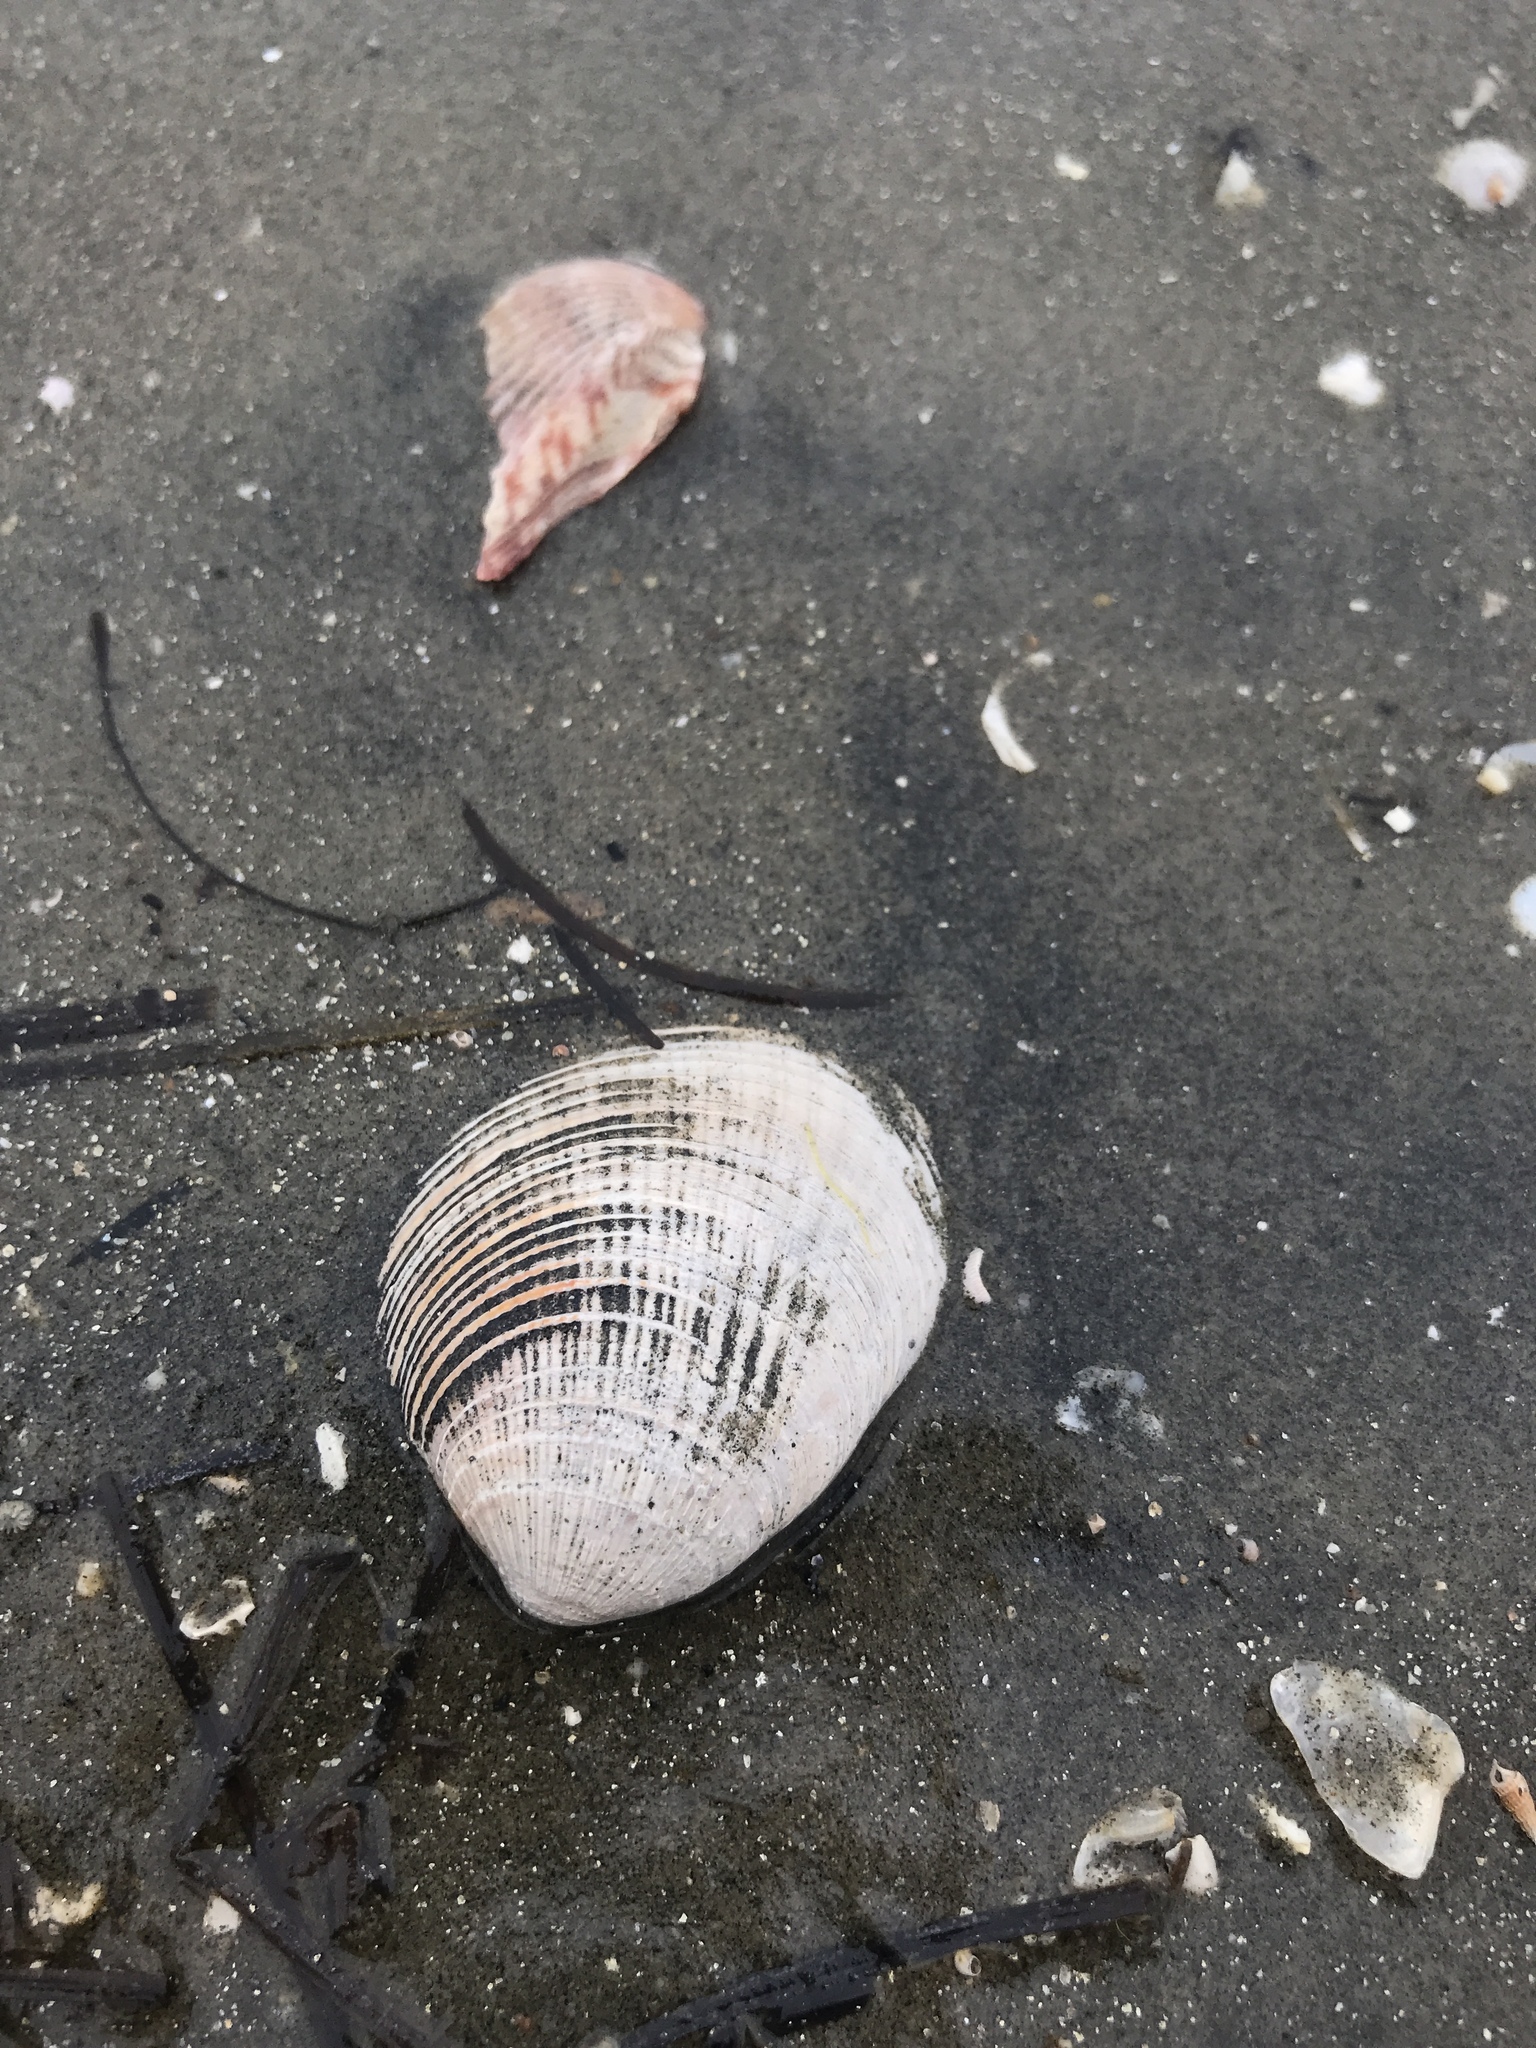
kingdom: Animalia
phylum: Mollusca
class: Bivalvia
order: Venerida
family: Veneridae
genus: Chione
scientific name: Chione californiensis
